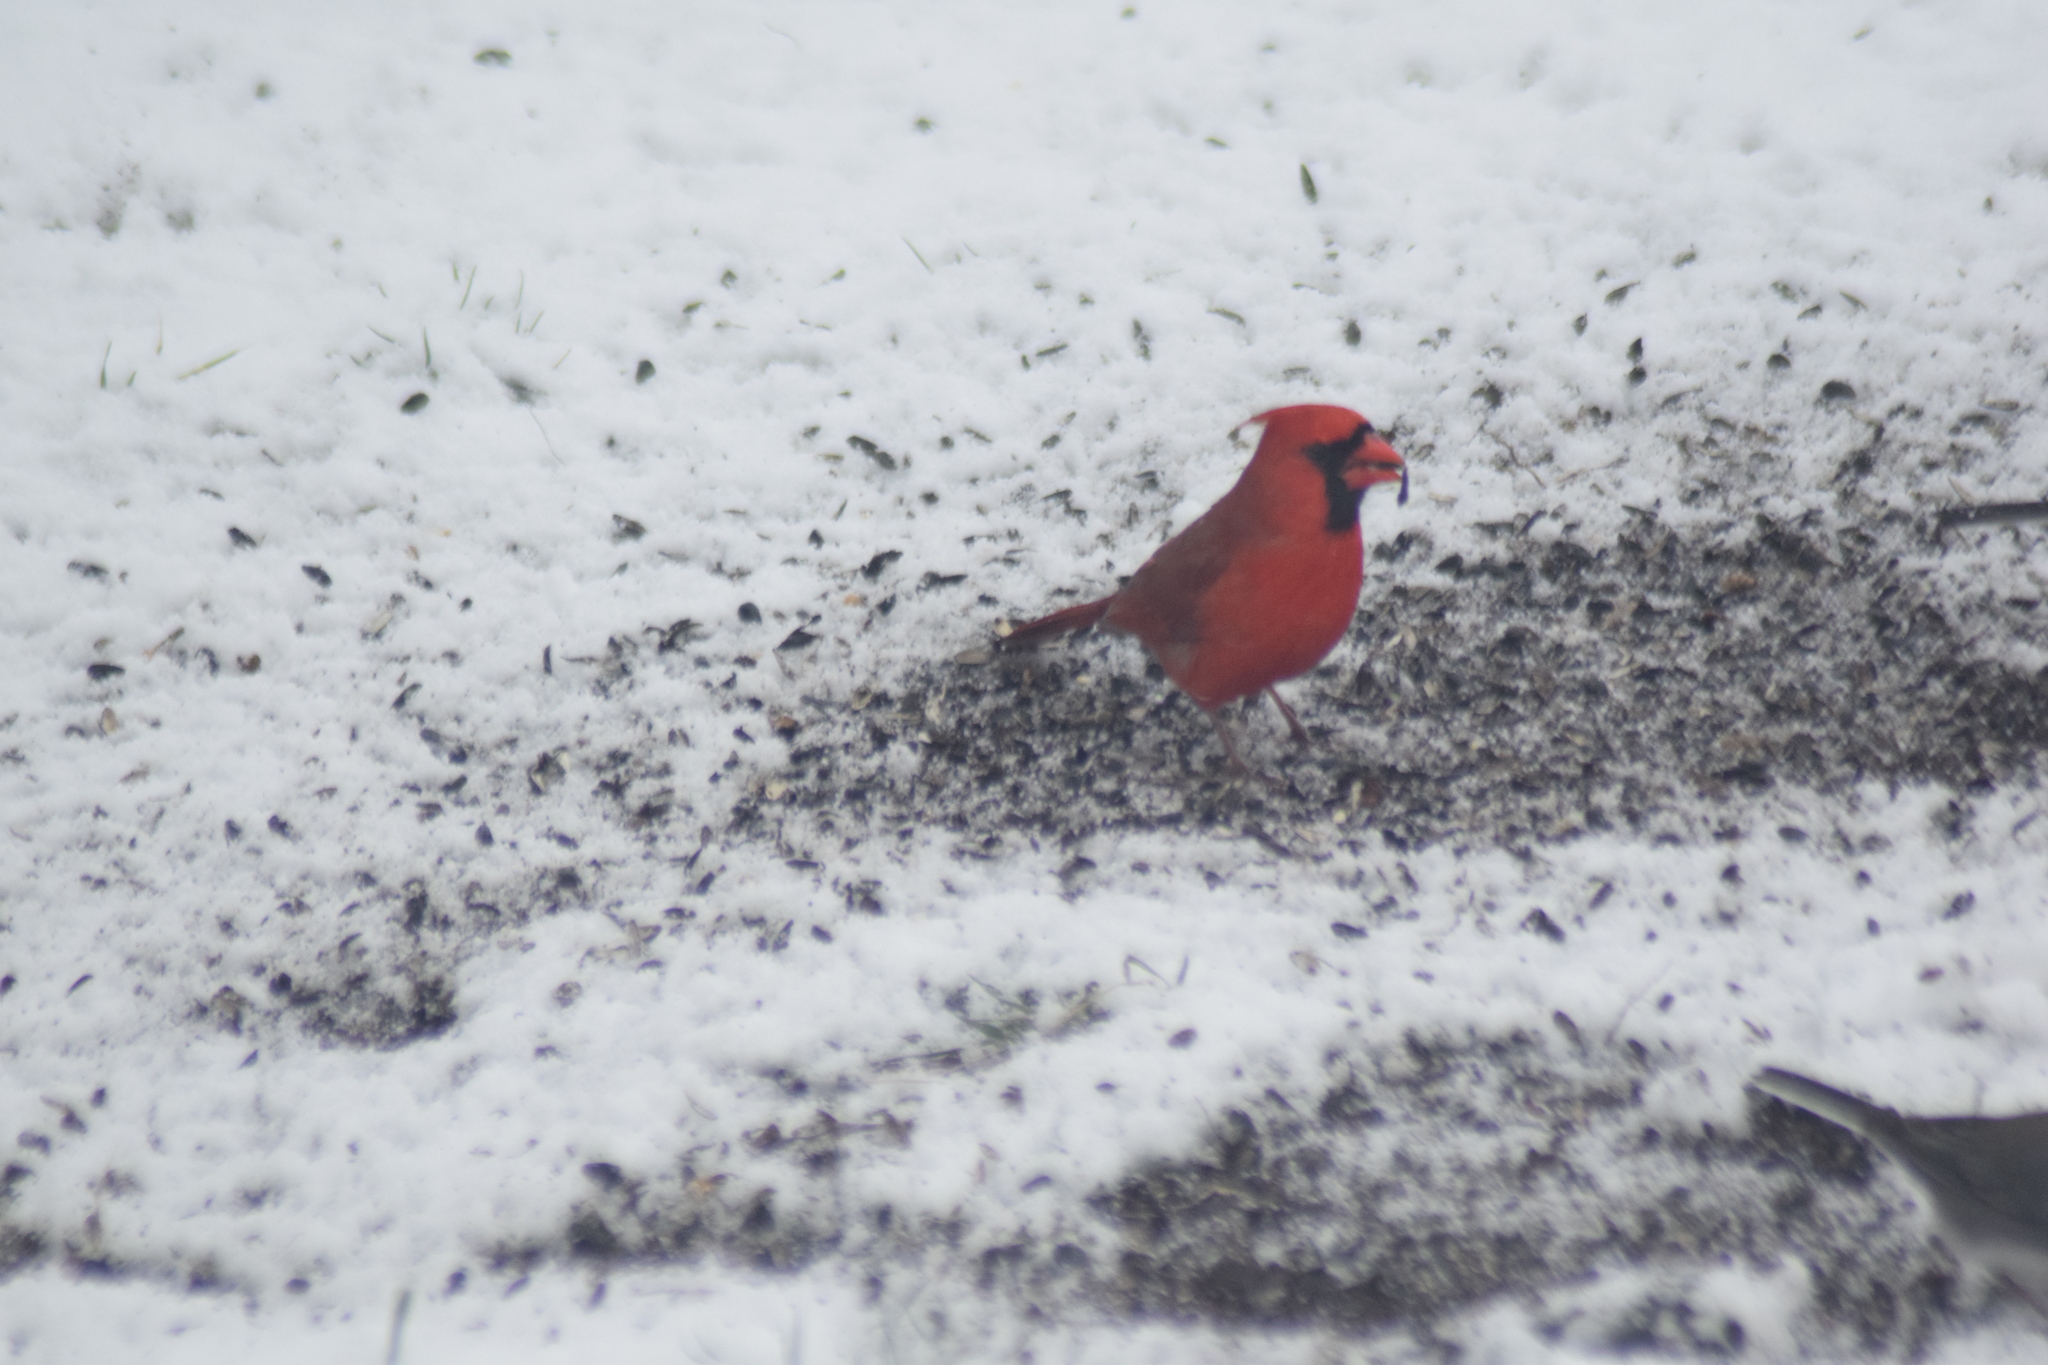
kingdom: Animalia
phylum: Chordata
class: Aves
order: Passeriformes
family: Cardinalidae
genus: Cardinalis
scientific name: Cardinalis cardinalis
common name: Northern cardinal
